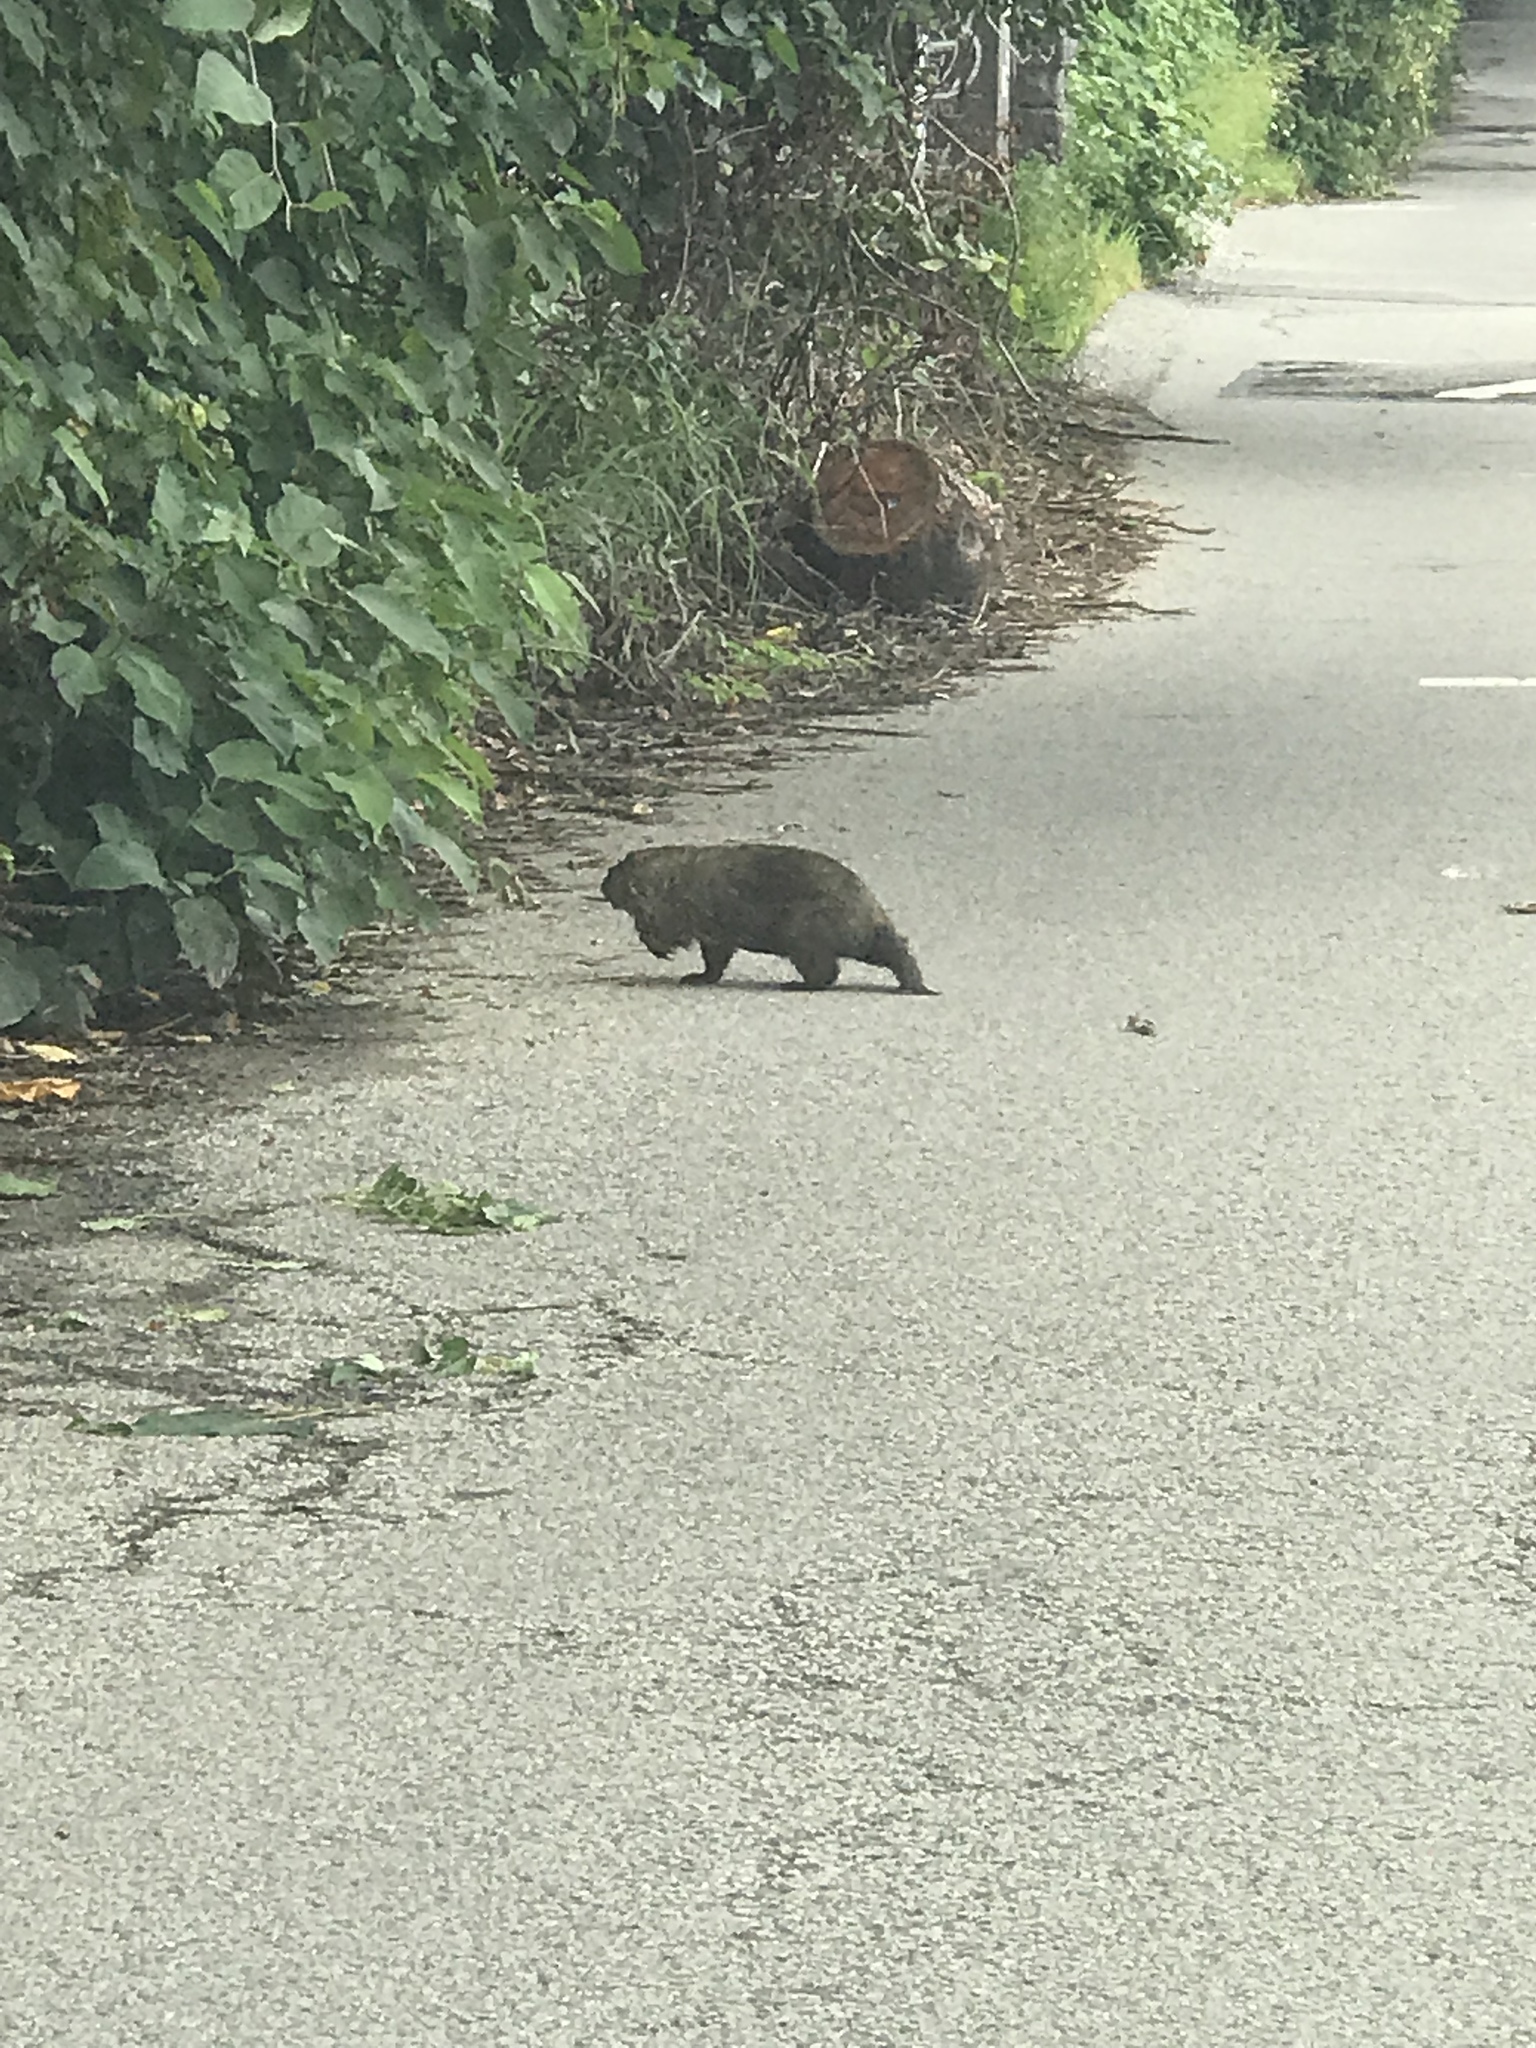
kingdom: Animalia
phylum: Chordata
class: Mammalia
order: Rodentia
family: Sciuridae
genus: Marmota
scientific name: Marmota monax
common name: Groundhog
